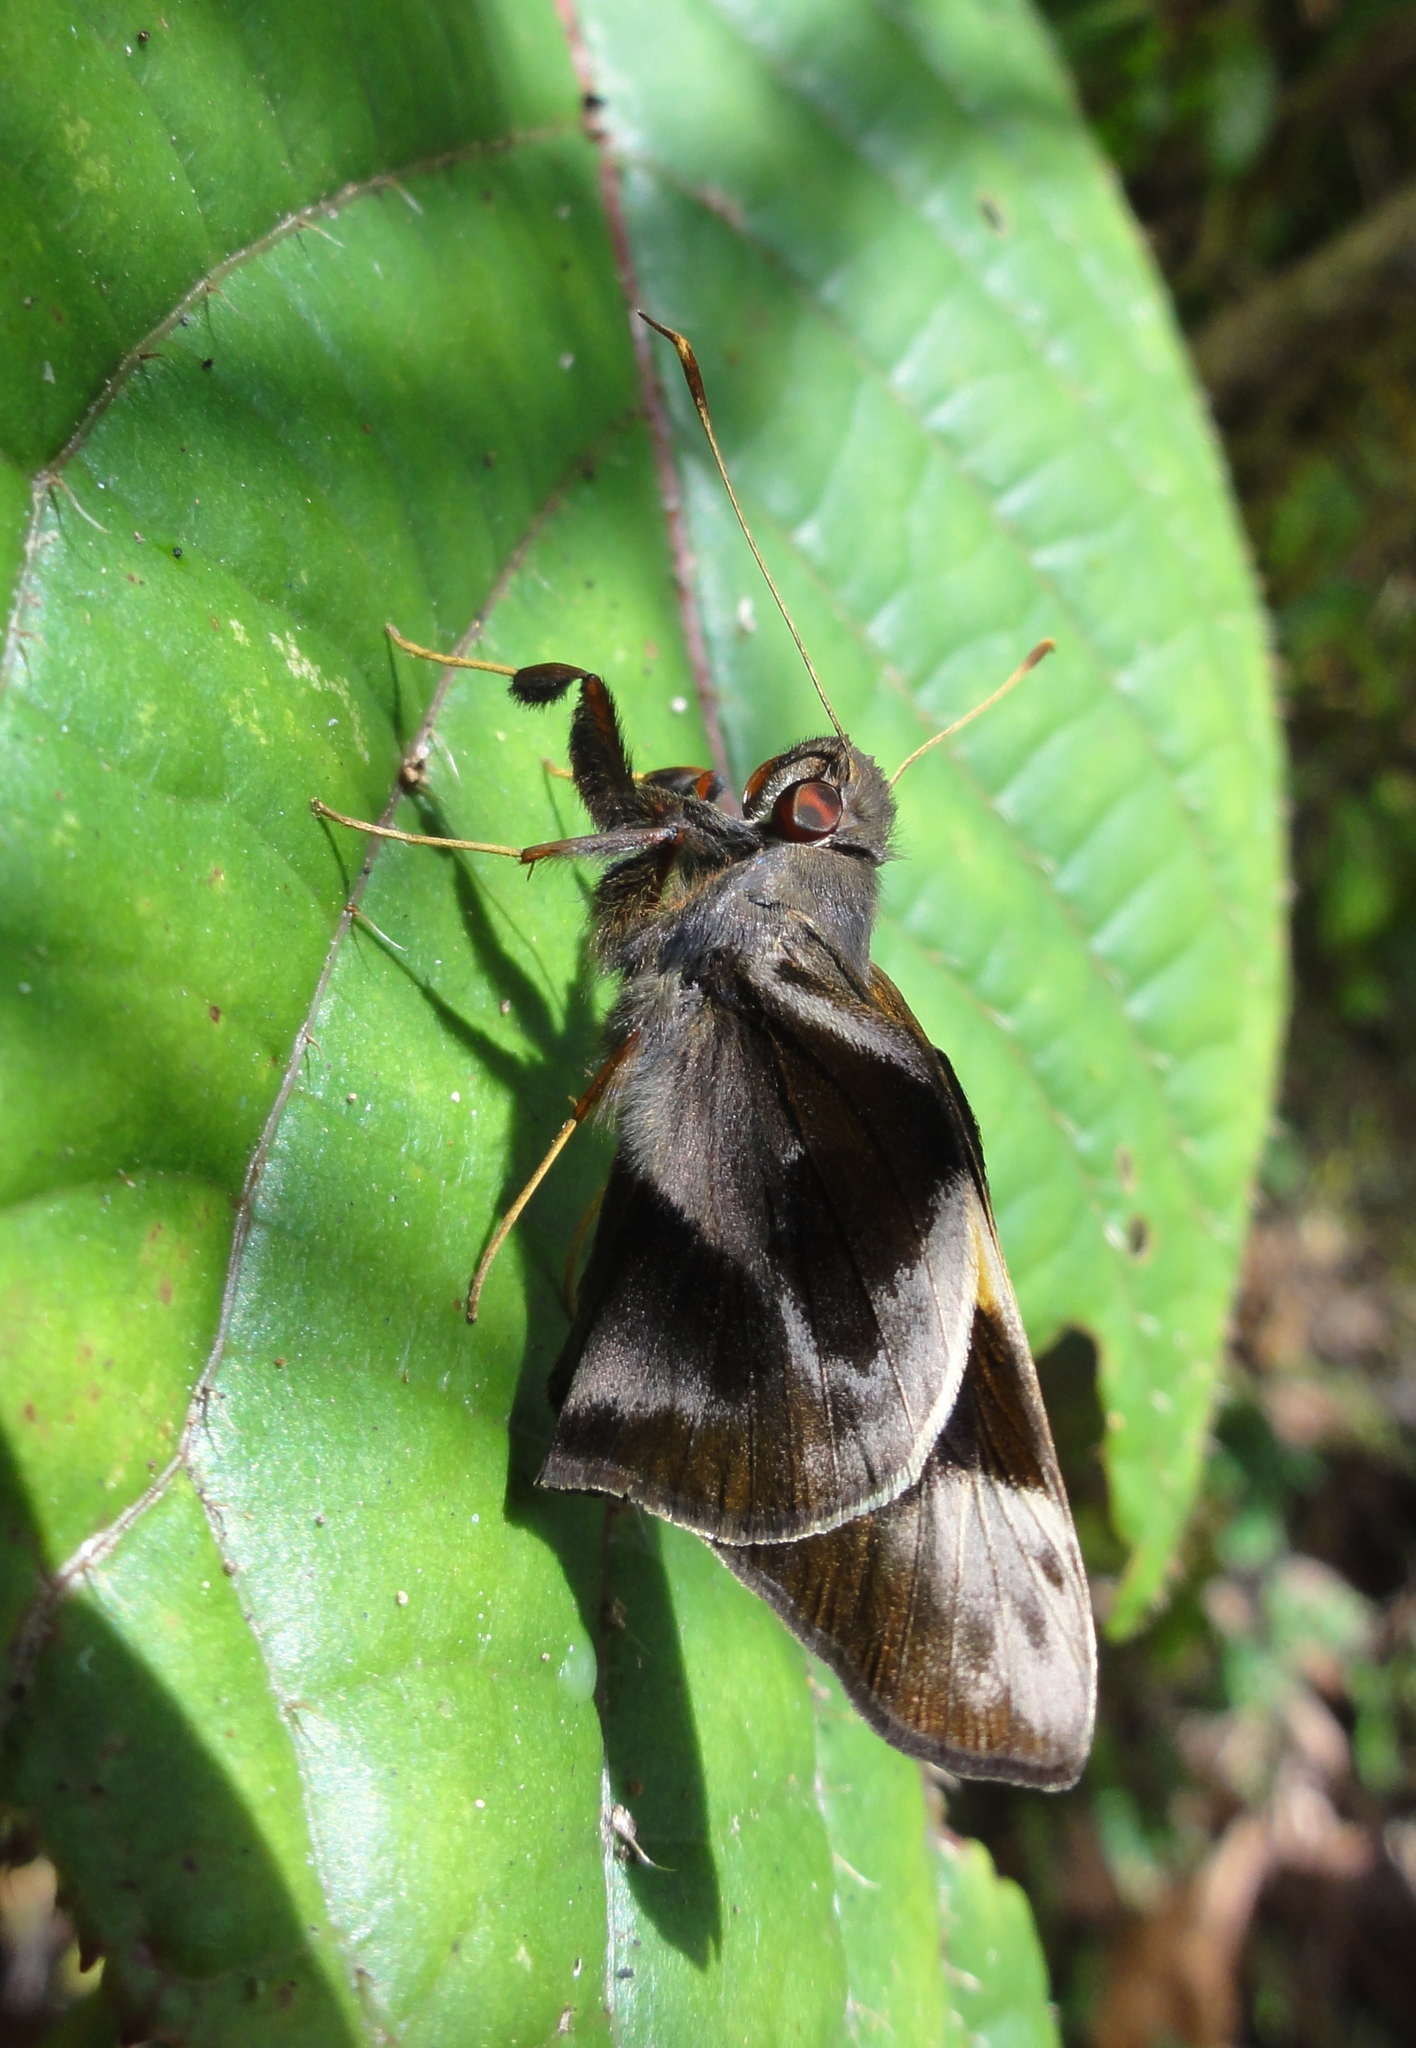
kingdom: Animalia
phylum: Arthropoda
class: Insecta
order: Lepidoptera
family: Hesperiidae
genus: Perichares
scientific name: Perichares
